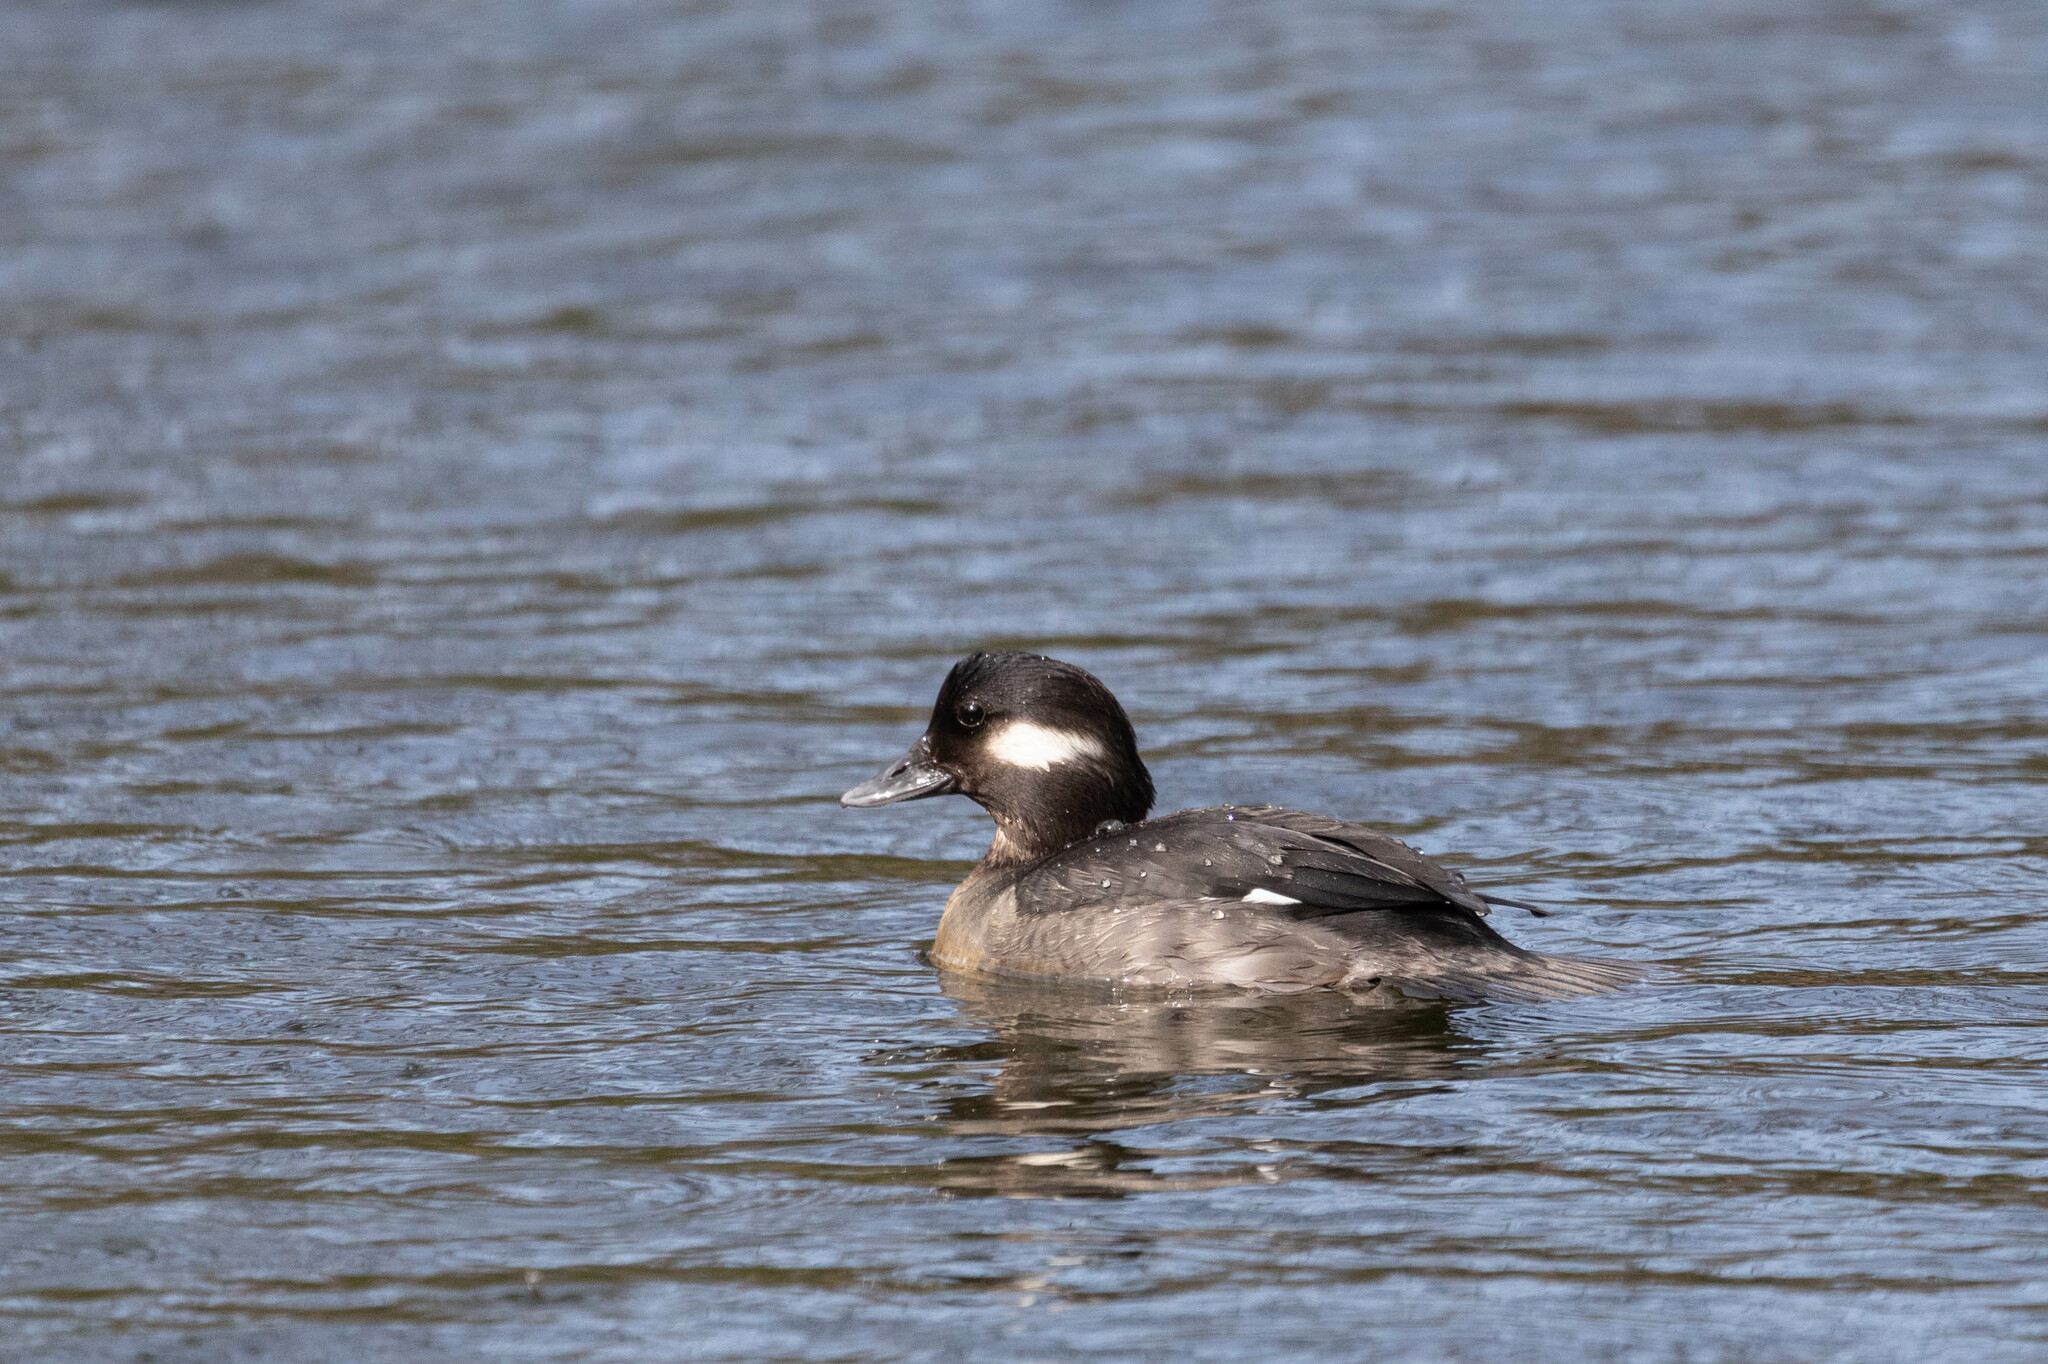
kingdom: Animalia
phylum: Chordata
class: Aves
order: Anseriformes
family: Anatidae
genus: Bucephala
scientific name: Bucephala albeola
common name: Bufflehead
